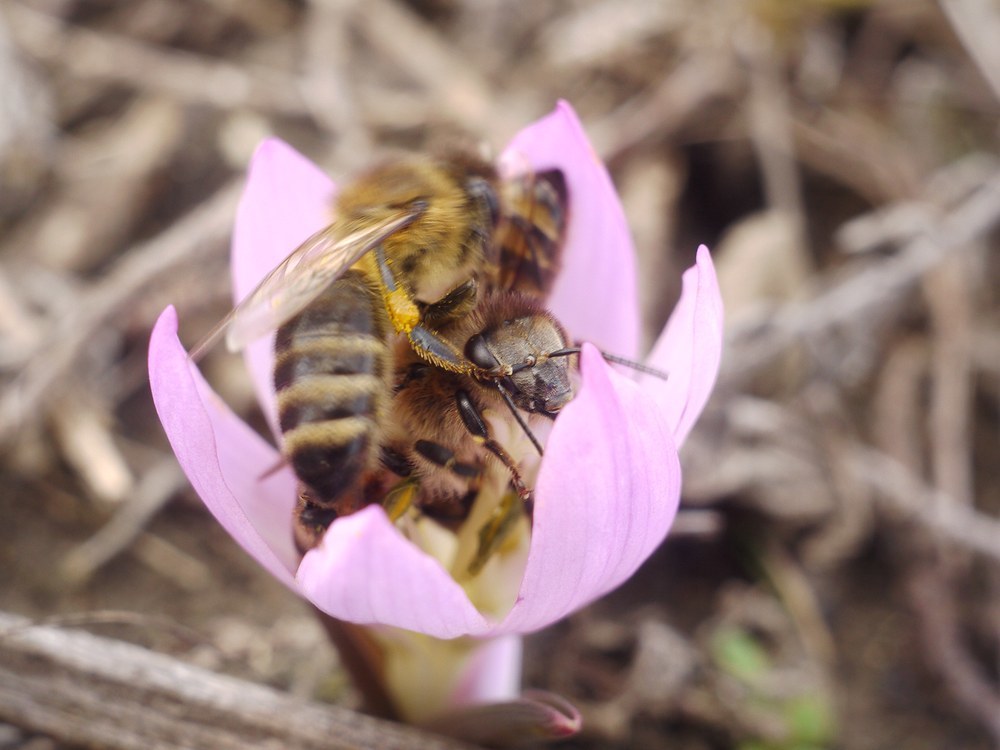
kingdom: Animalia
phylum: Arthropoda
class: Insecta
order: Hymenoptera
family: Apidae
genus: Apis
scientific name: Apis mellifera
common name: Honey bee
